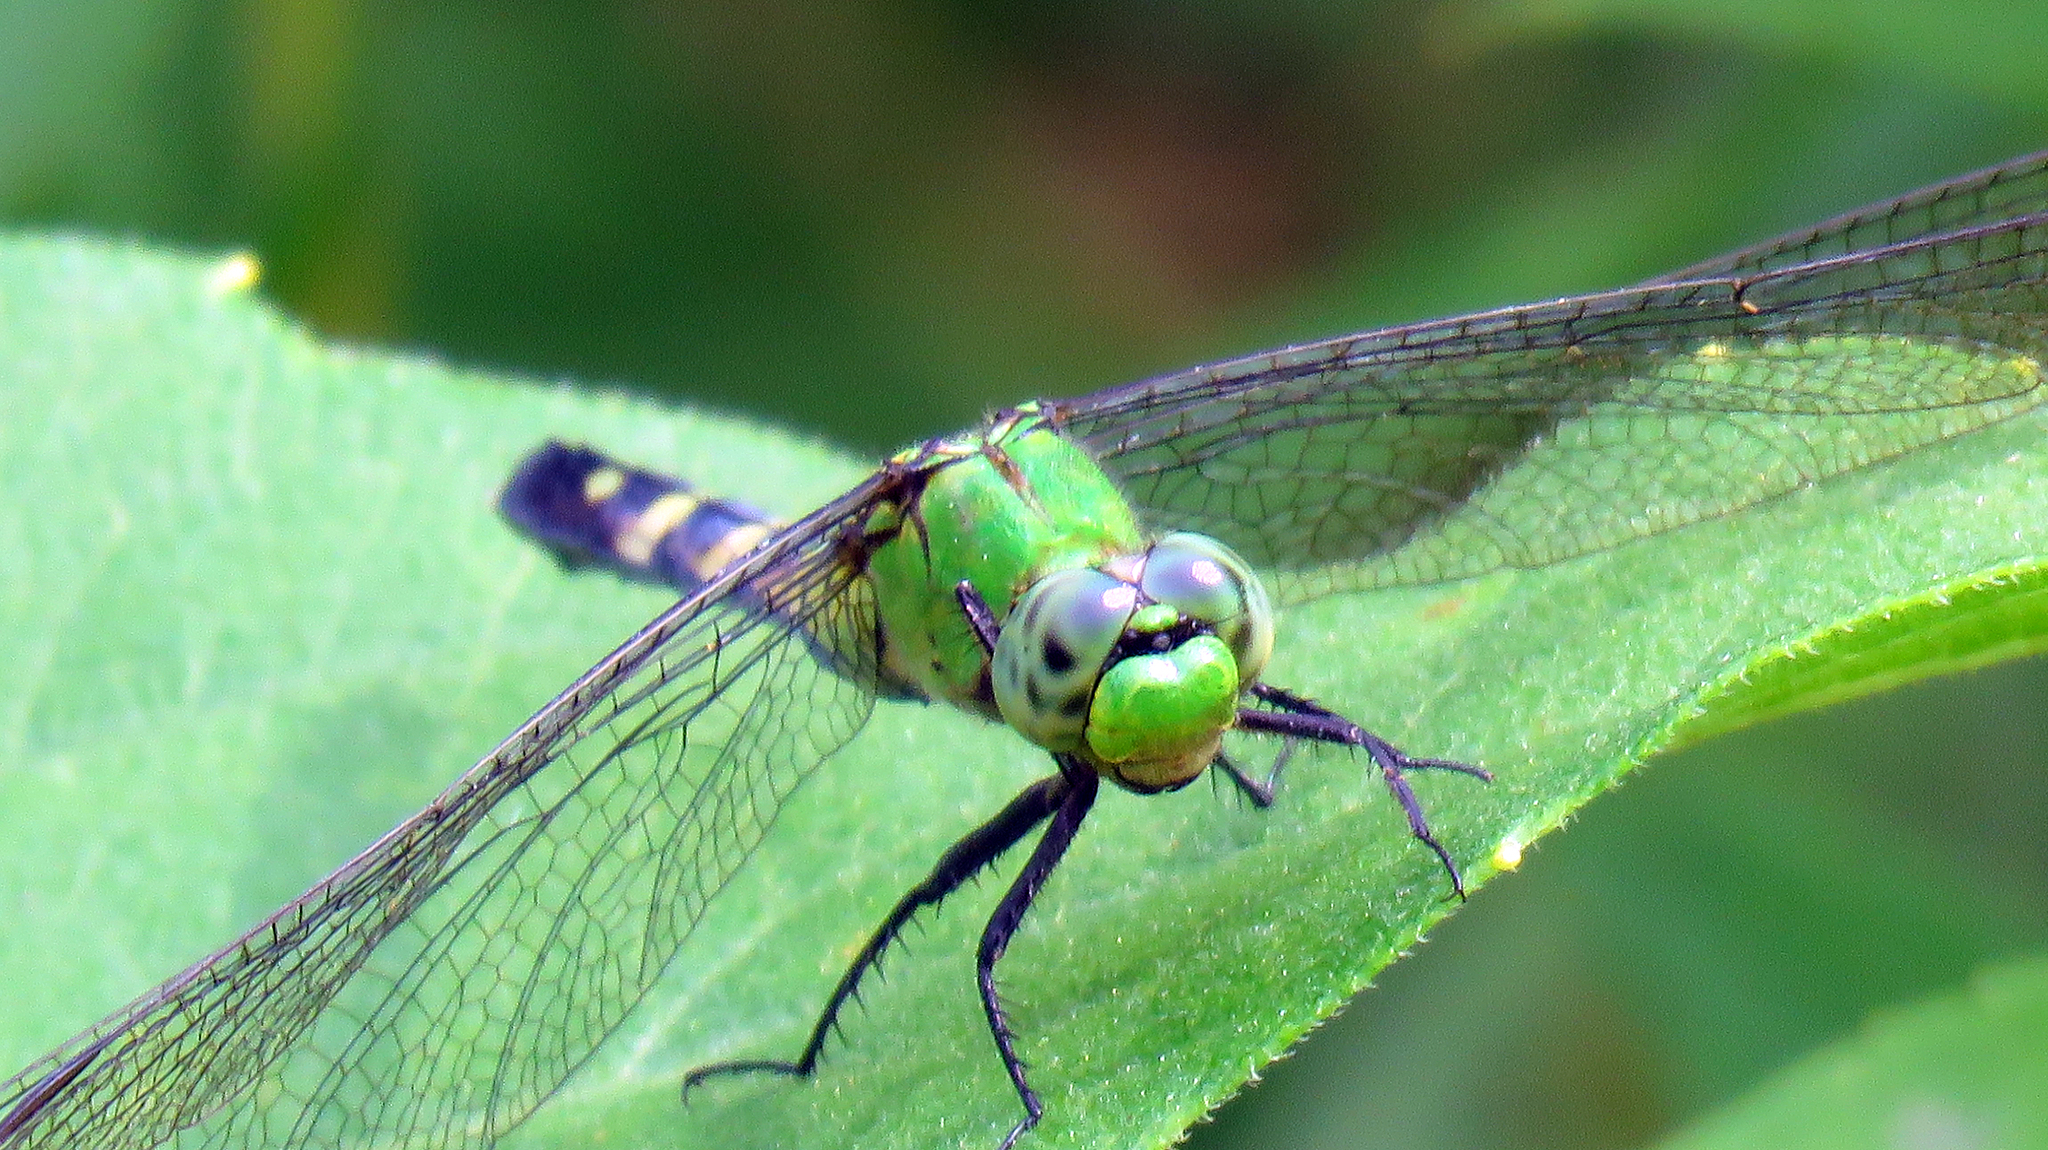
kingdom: Animalia
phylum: Arthropoda
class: Insecta
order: Odonata
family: Libellulidae
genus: Erythemis
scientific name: Erythemis simplicicollis
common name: Eastern pondhawk
